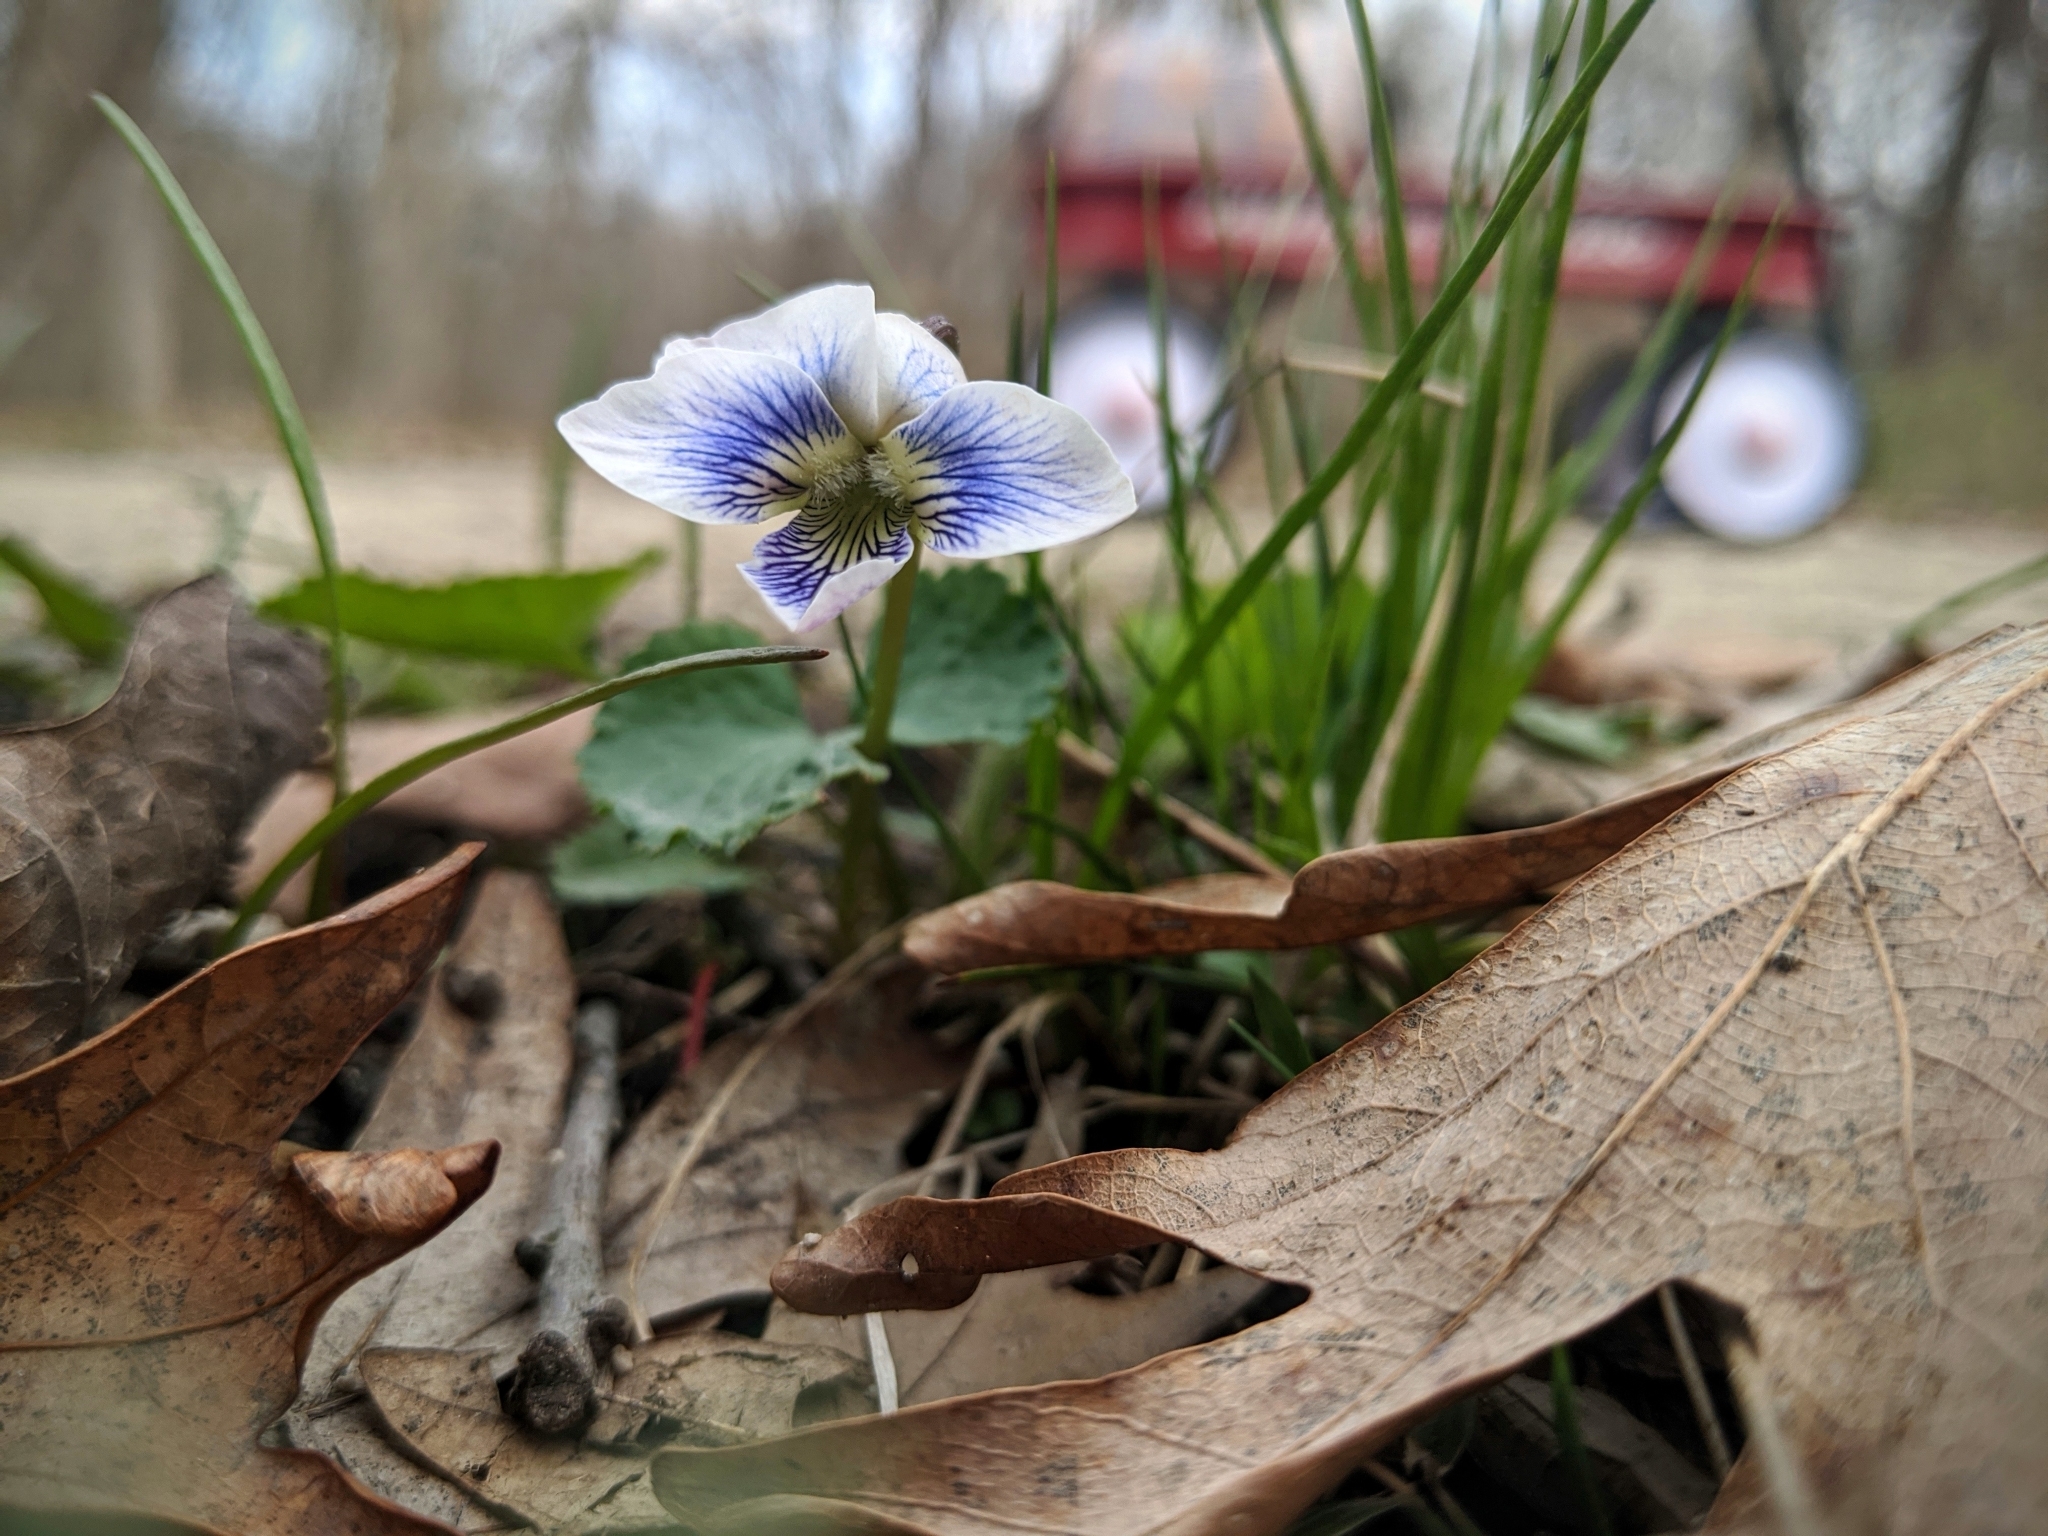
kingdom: Plantae
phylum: Tracheophyta
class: Magnoliopsida
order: Malpighiales
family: Violaceae
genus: Viola
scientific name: Viola sororia
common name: Dooryard violet
